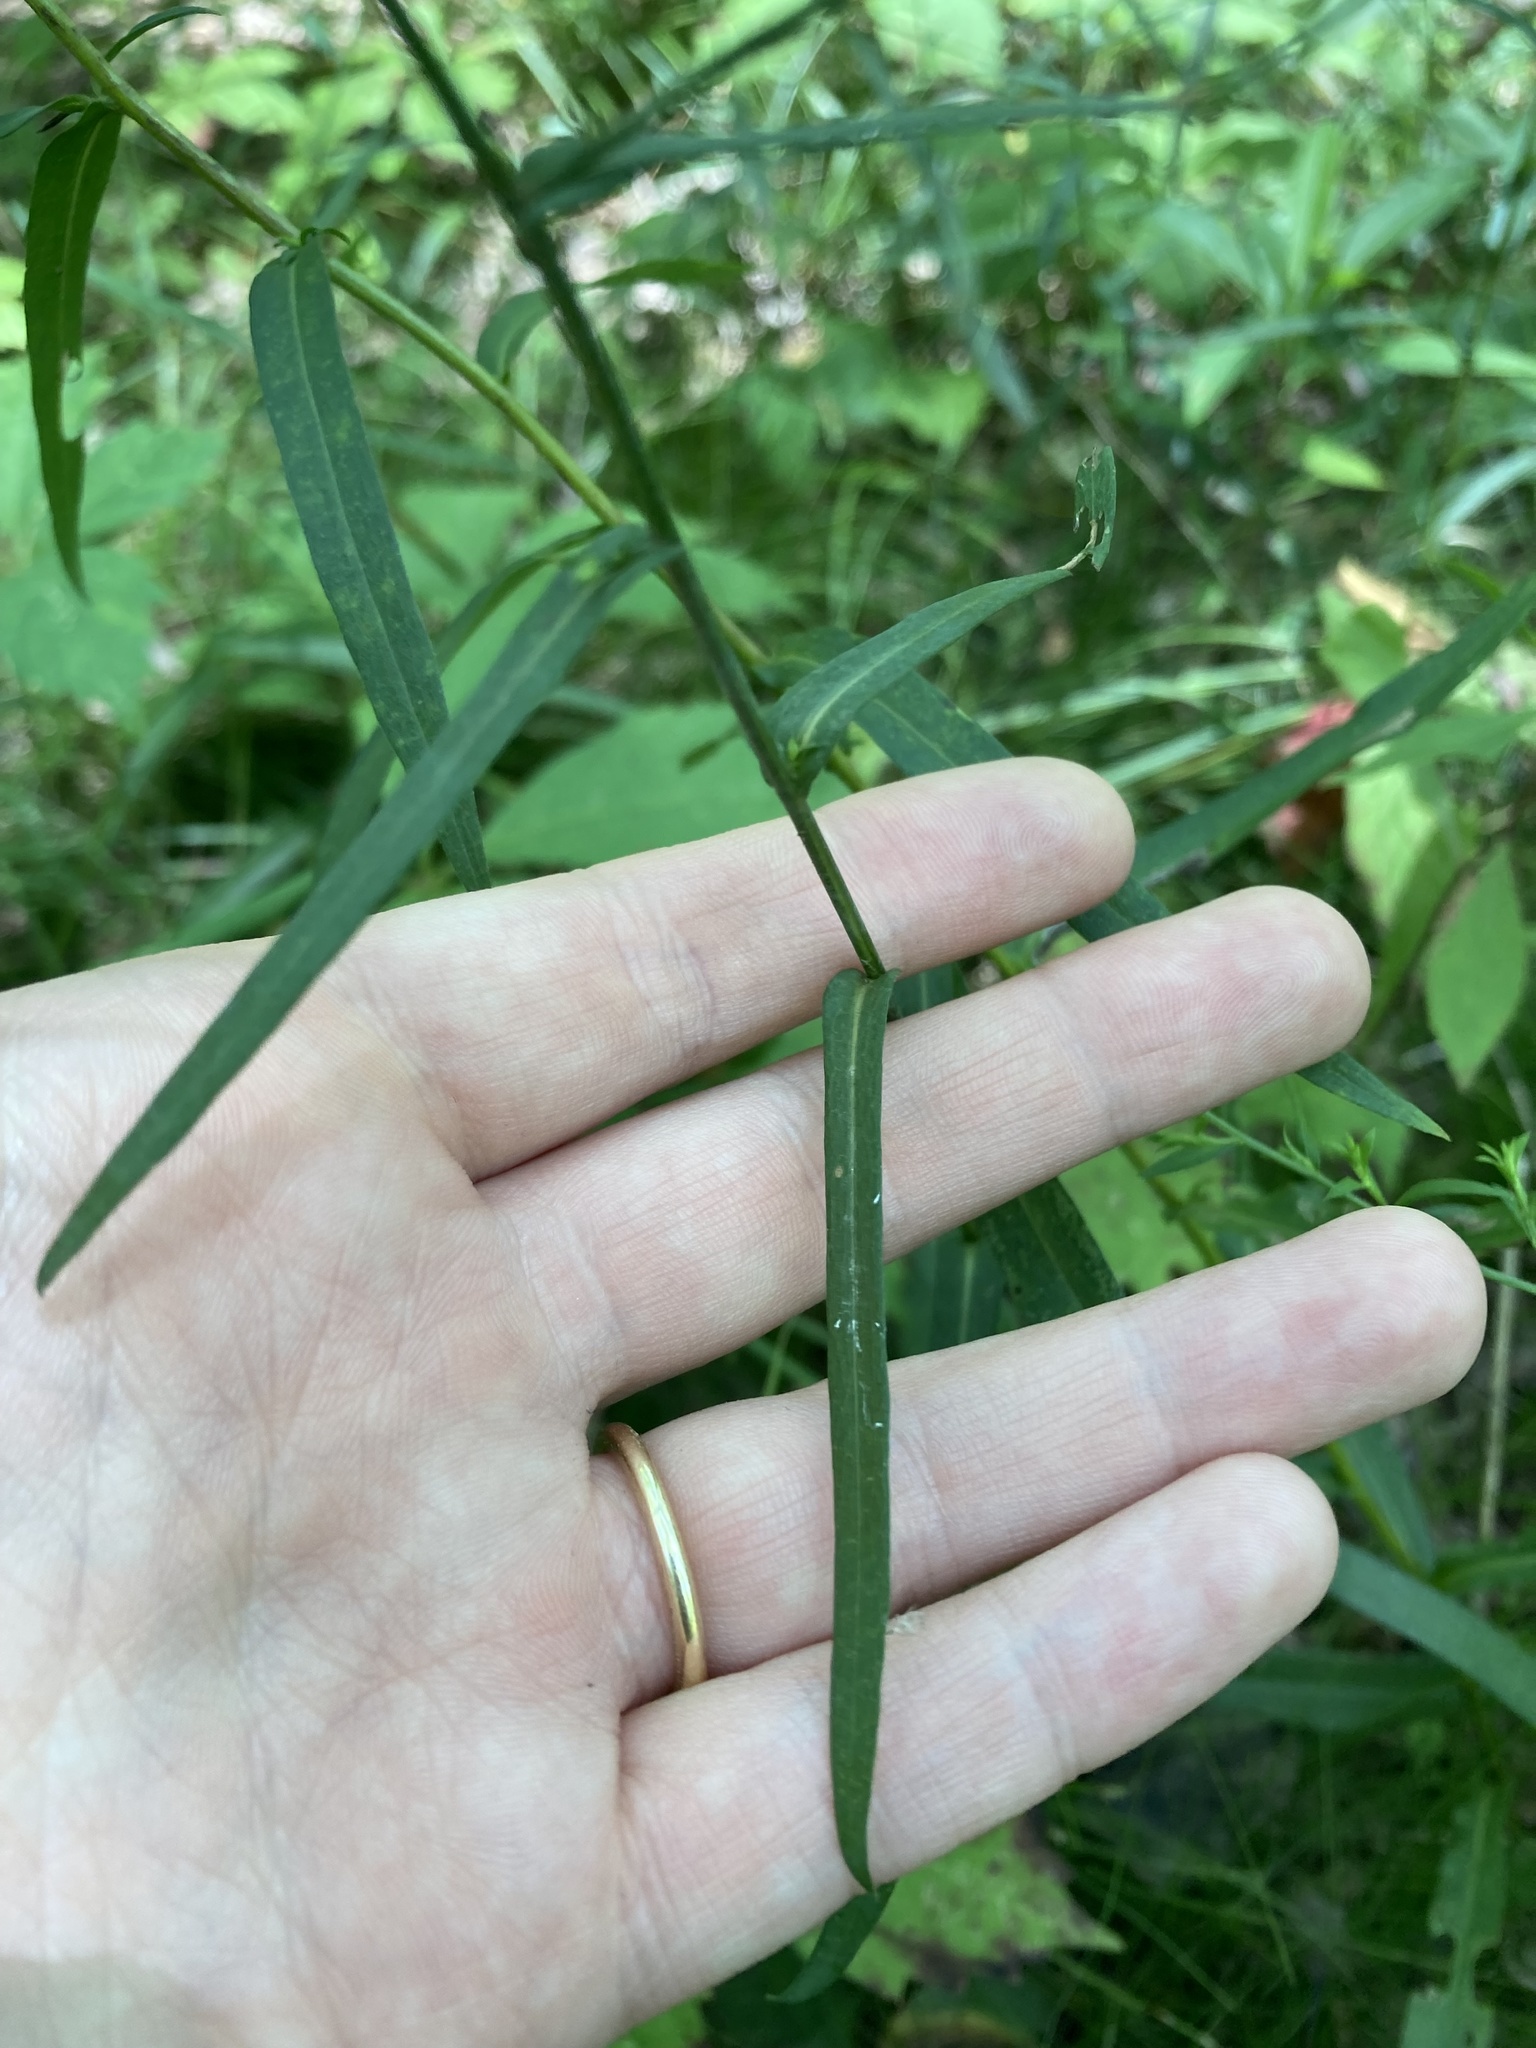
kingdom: Plantae
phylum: Tracheophyta
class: Magnoliopsida
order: Asterales
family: Asteraceae
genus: Symphyotrichum
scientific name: Symphyotrichum laeve
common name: Glaucous aster
